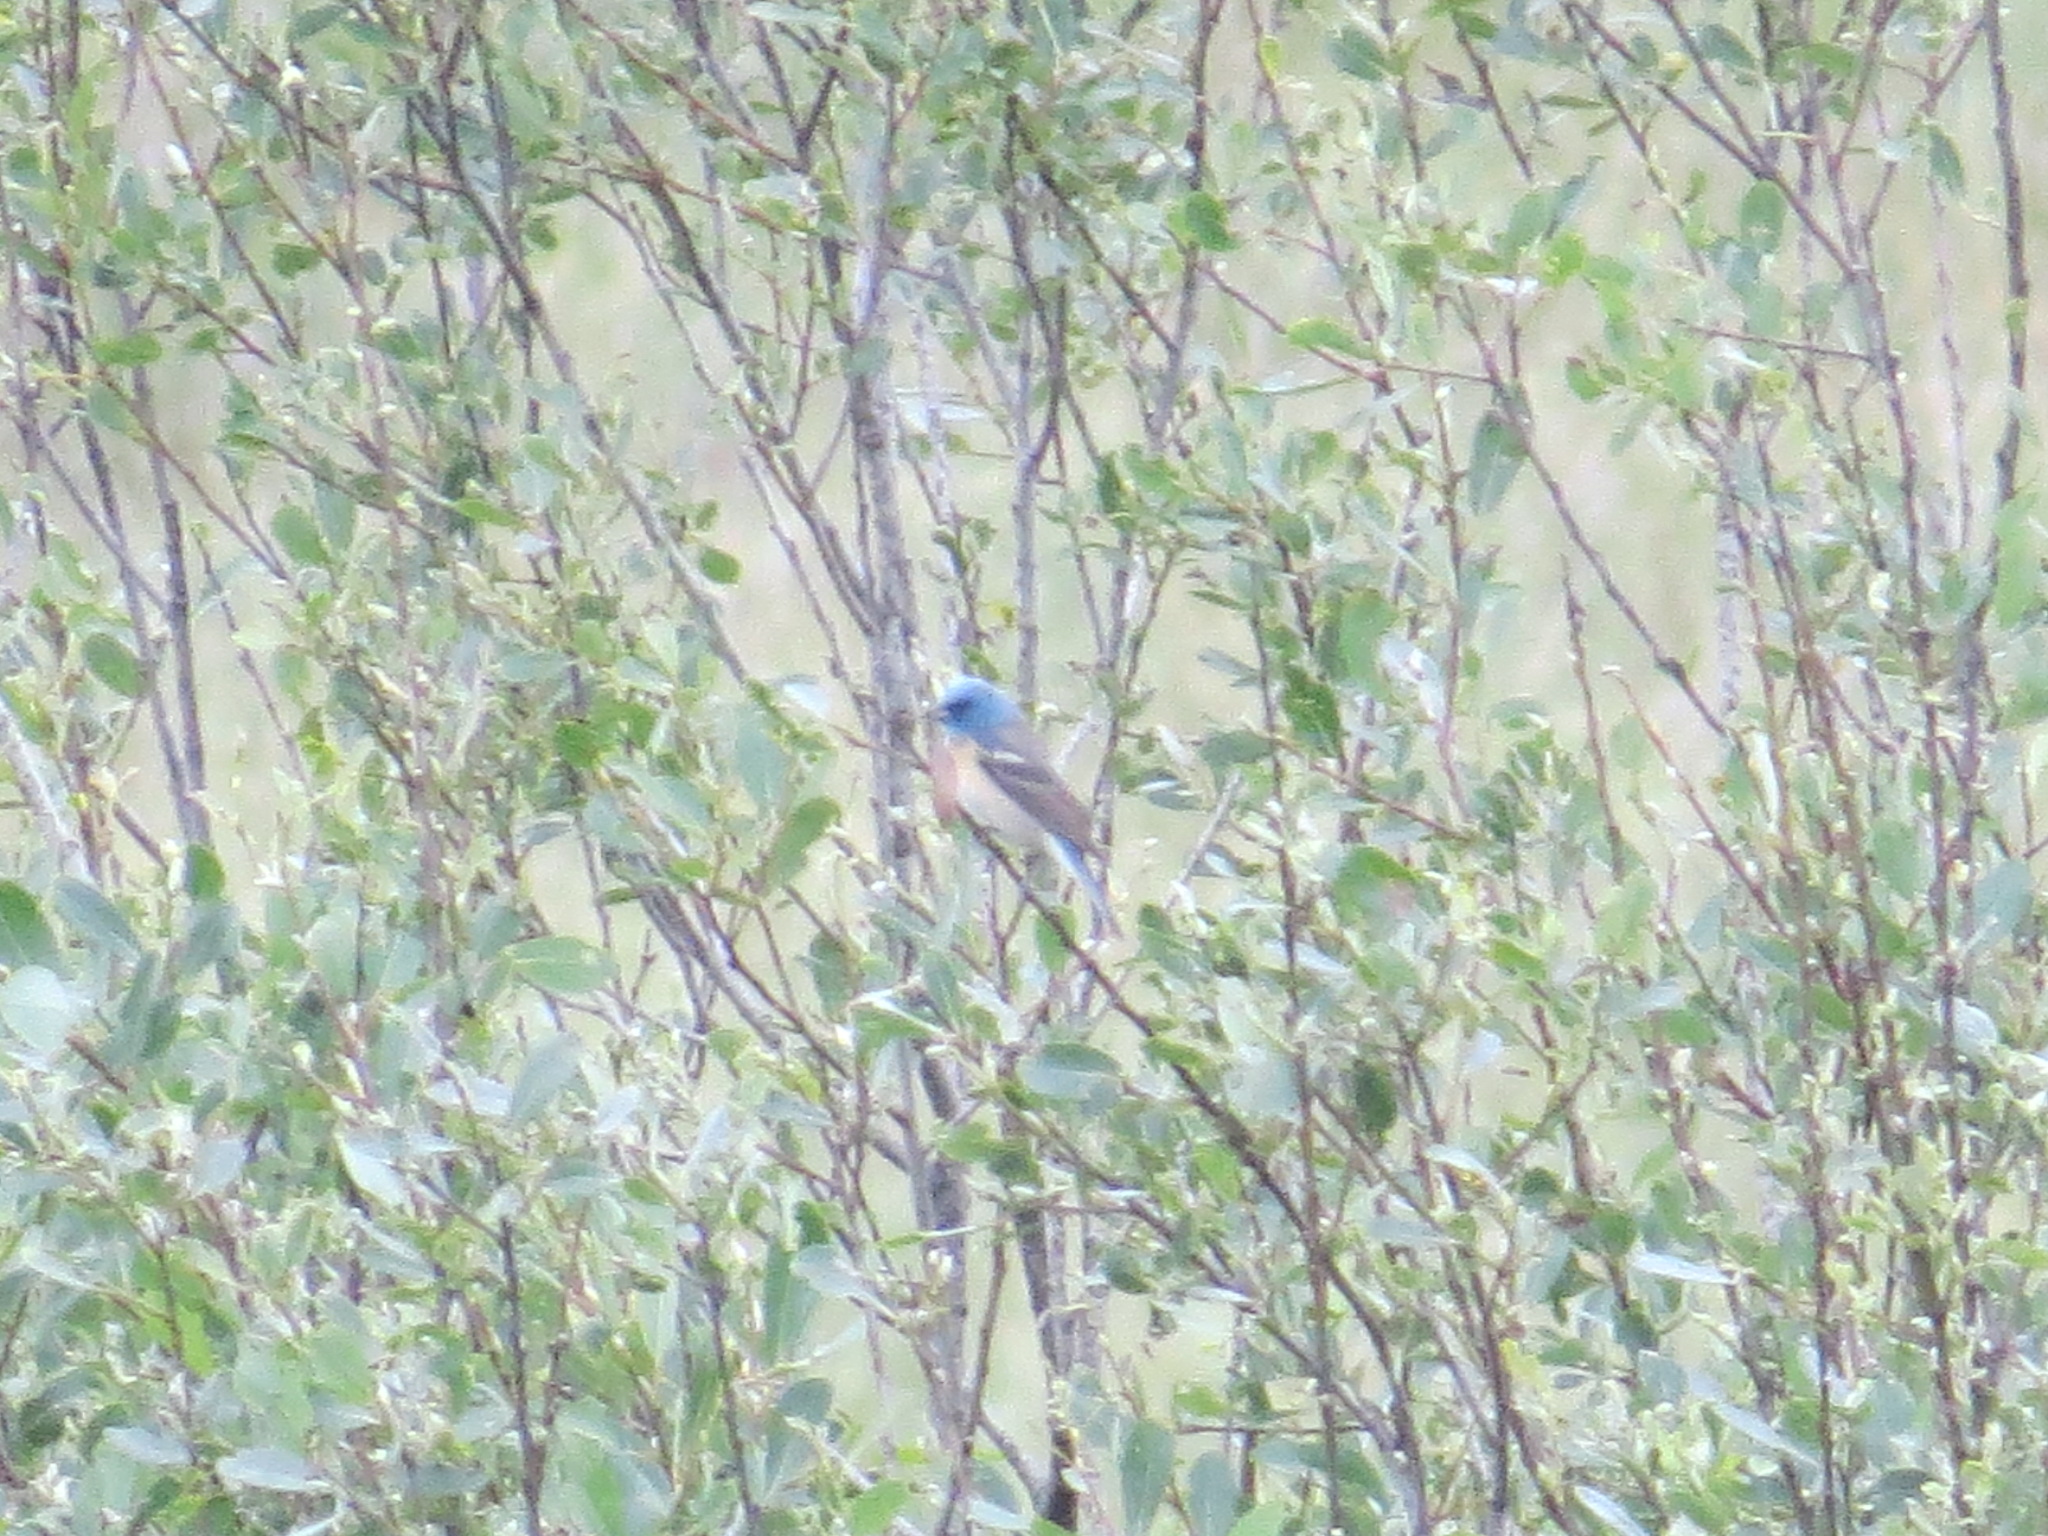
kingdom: Animalia
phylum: Chordata
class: Aves
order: Passeriformes
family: Cardinalidae
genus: Passerina
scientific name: Passerina amoena
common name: Lazuli bunting
